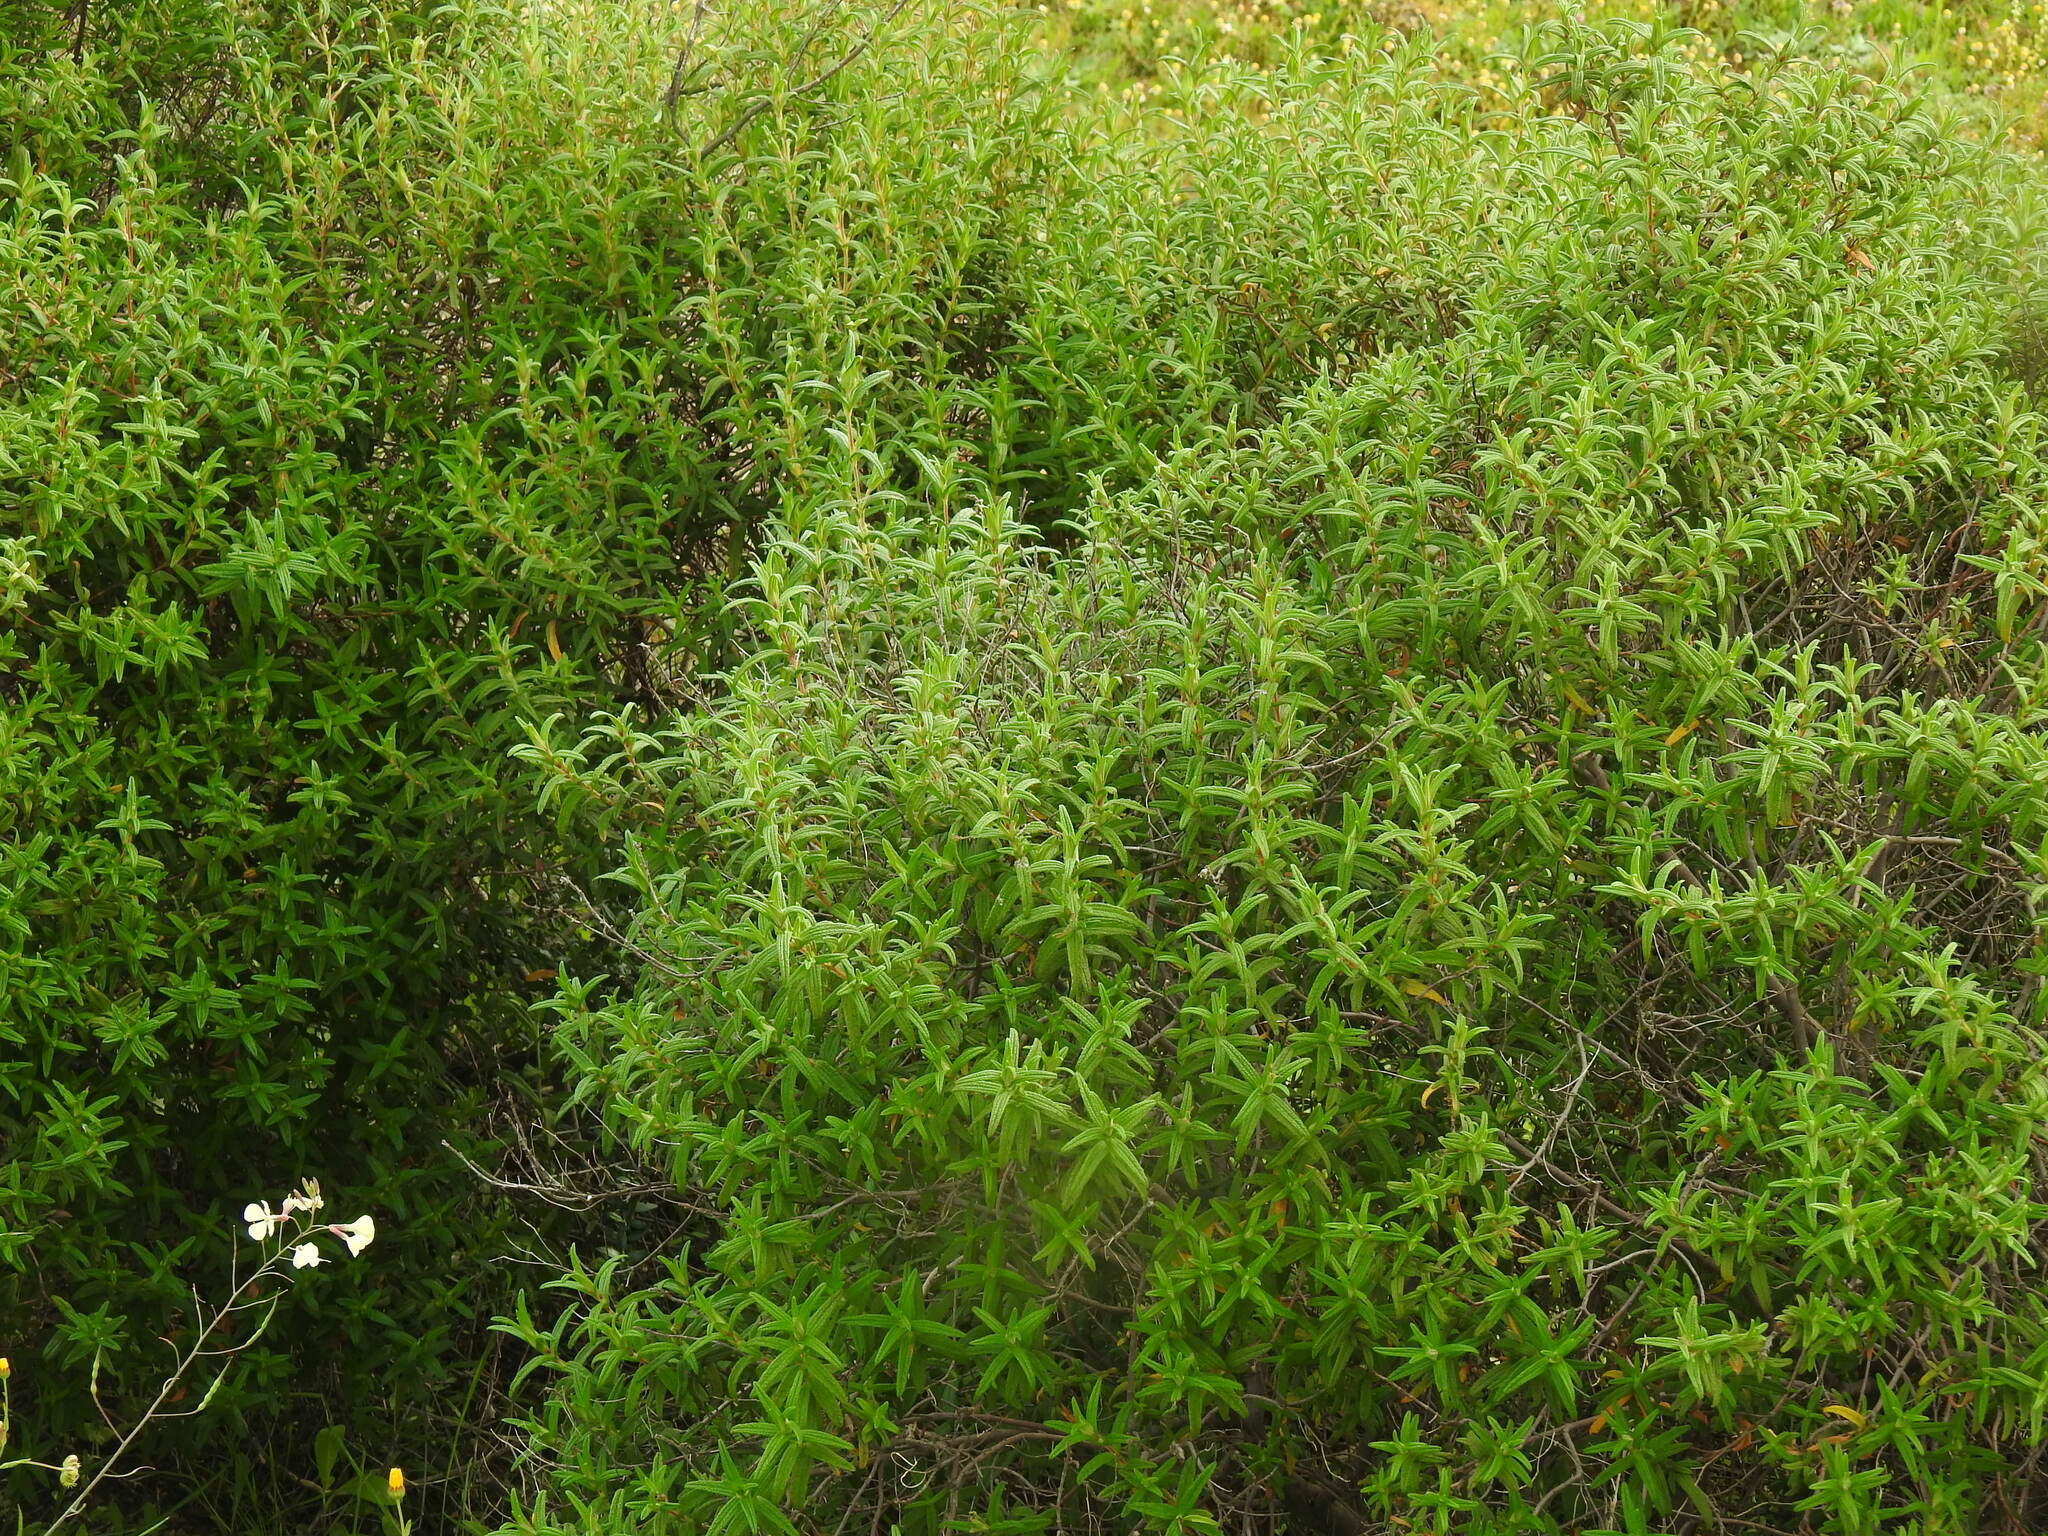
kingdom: Plantae
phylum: Tracheophyta
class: Magnoliopsida
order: Malvales
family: Cistaceae
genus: Cistus
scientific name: Cistus monspeliensis
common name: Montpelier cistus
